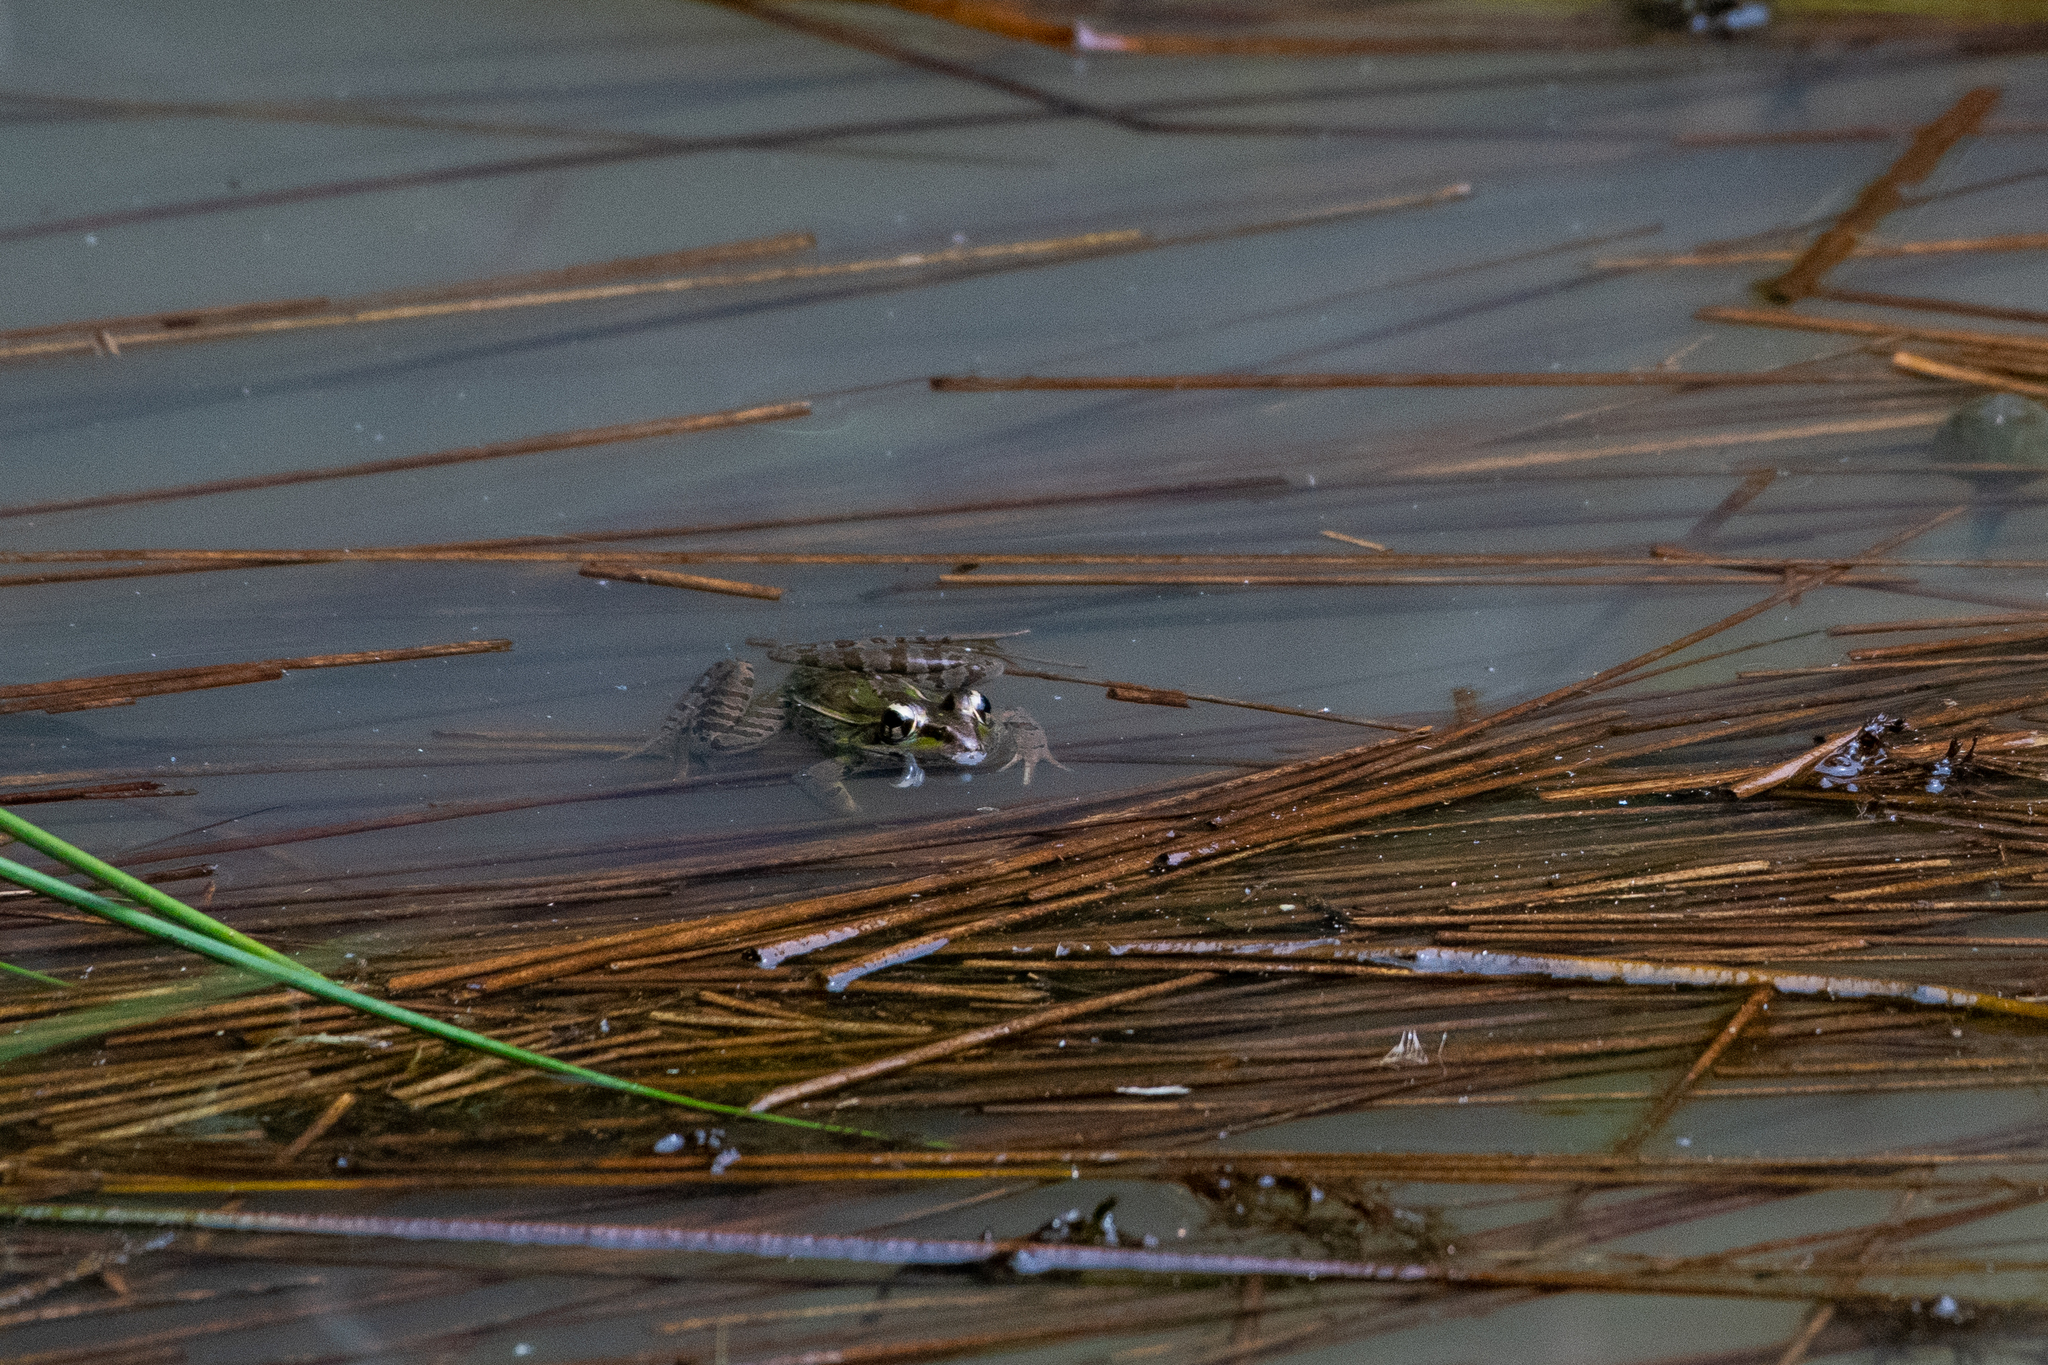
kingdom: Animalia
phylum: Chordata
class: Amphibia
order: Anura
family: Ranidae
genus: Lithobates
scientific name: Lithobates lenca
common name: Lenca leopard frog
